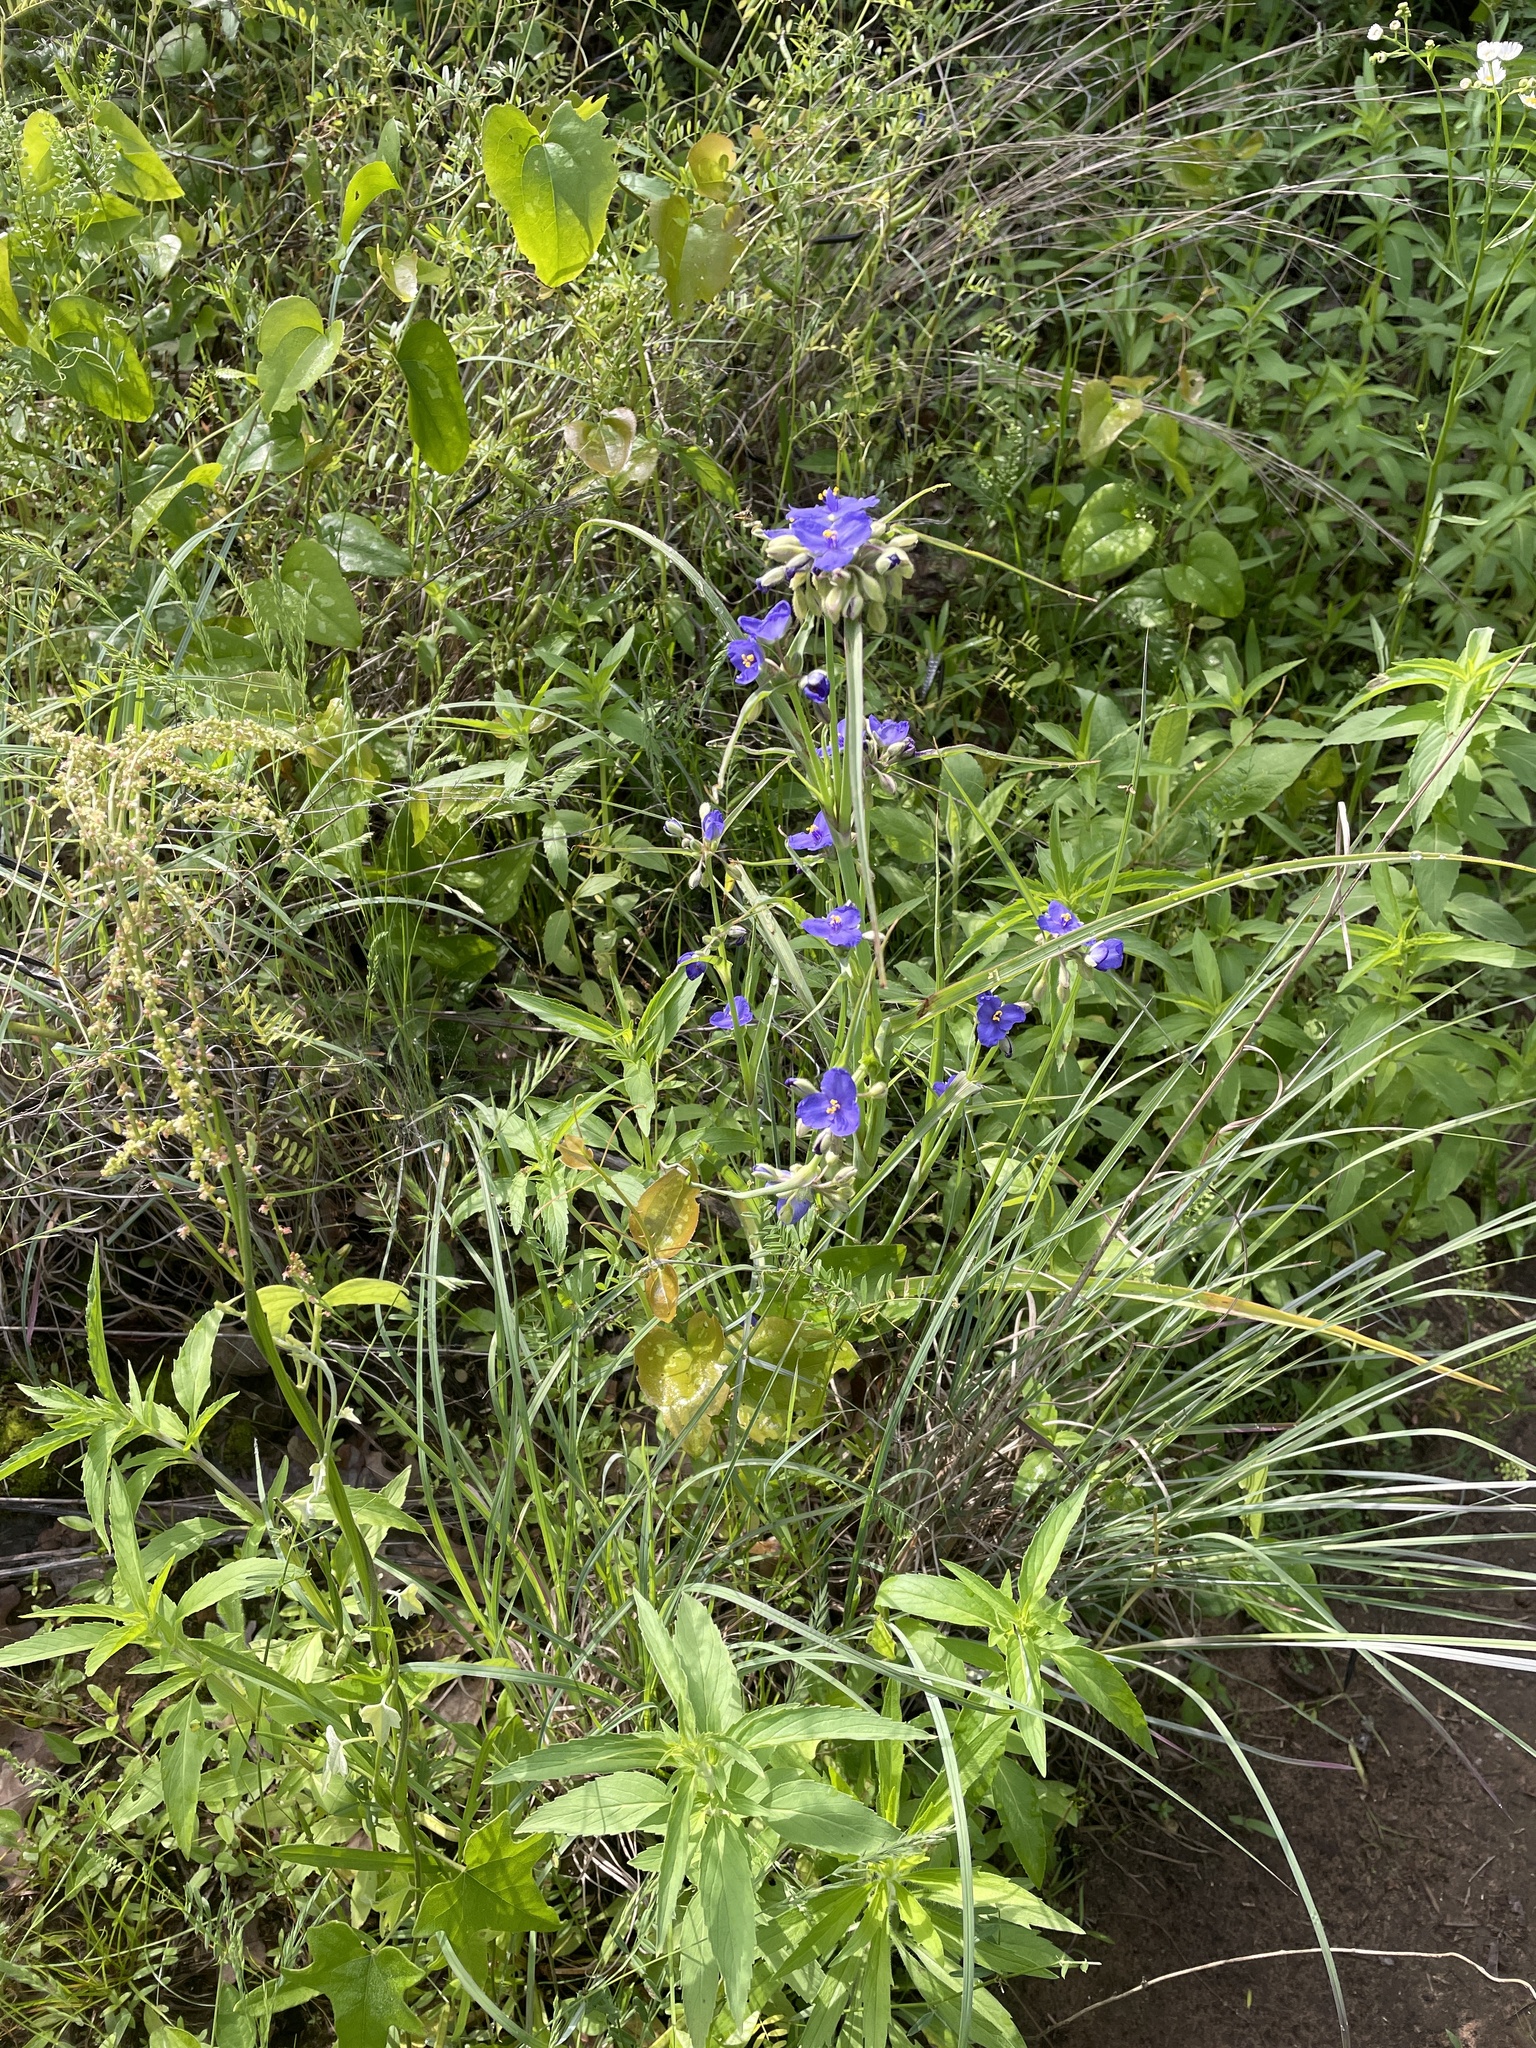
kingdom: Plantae
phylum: Tracheophyta
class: Liliopsida
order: Commelinales
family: Commelinaceae
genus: Tradescantia
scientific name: Tradescantia occidentalis
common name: Prairie spiderwort
